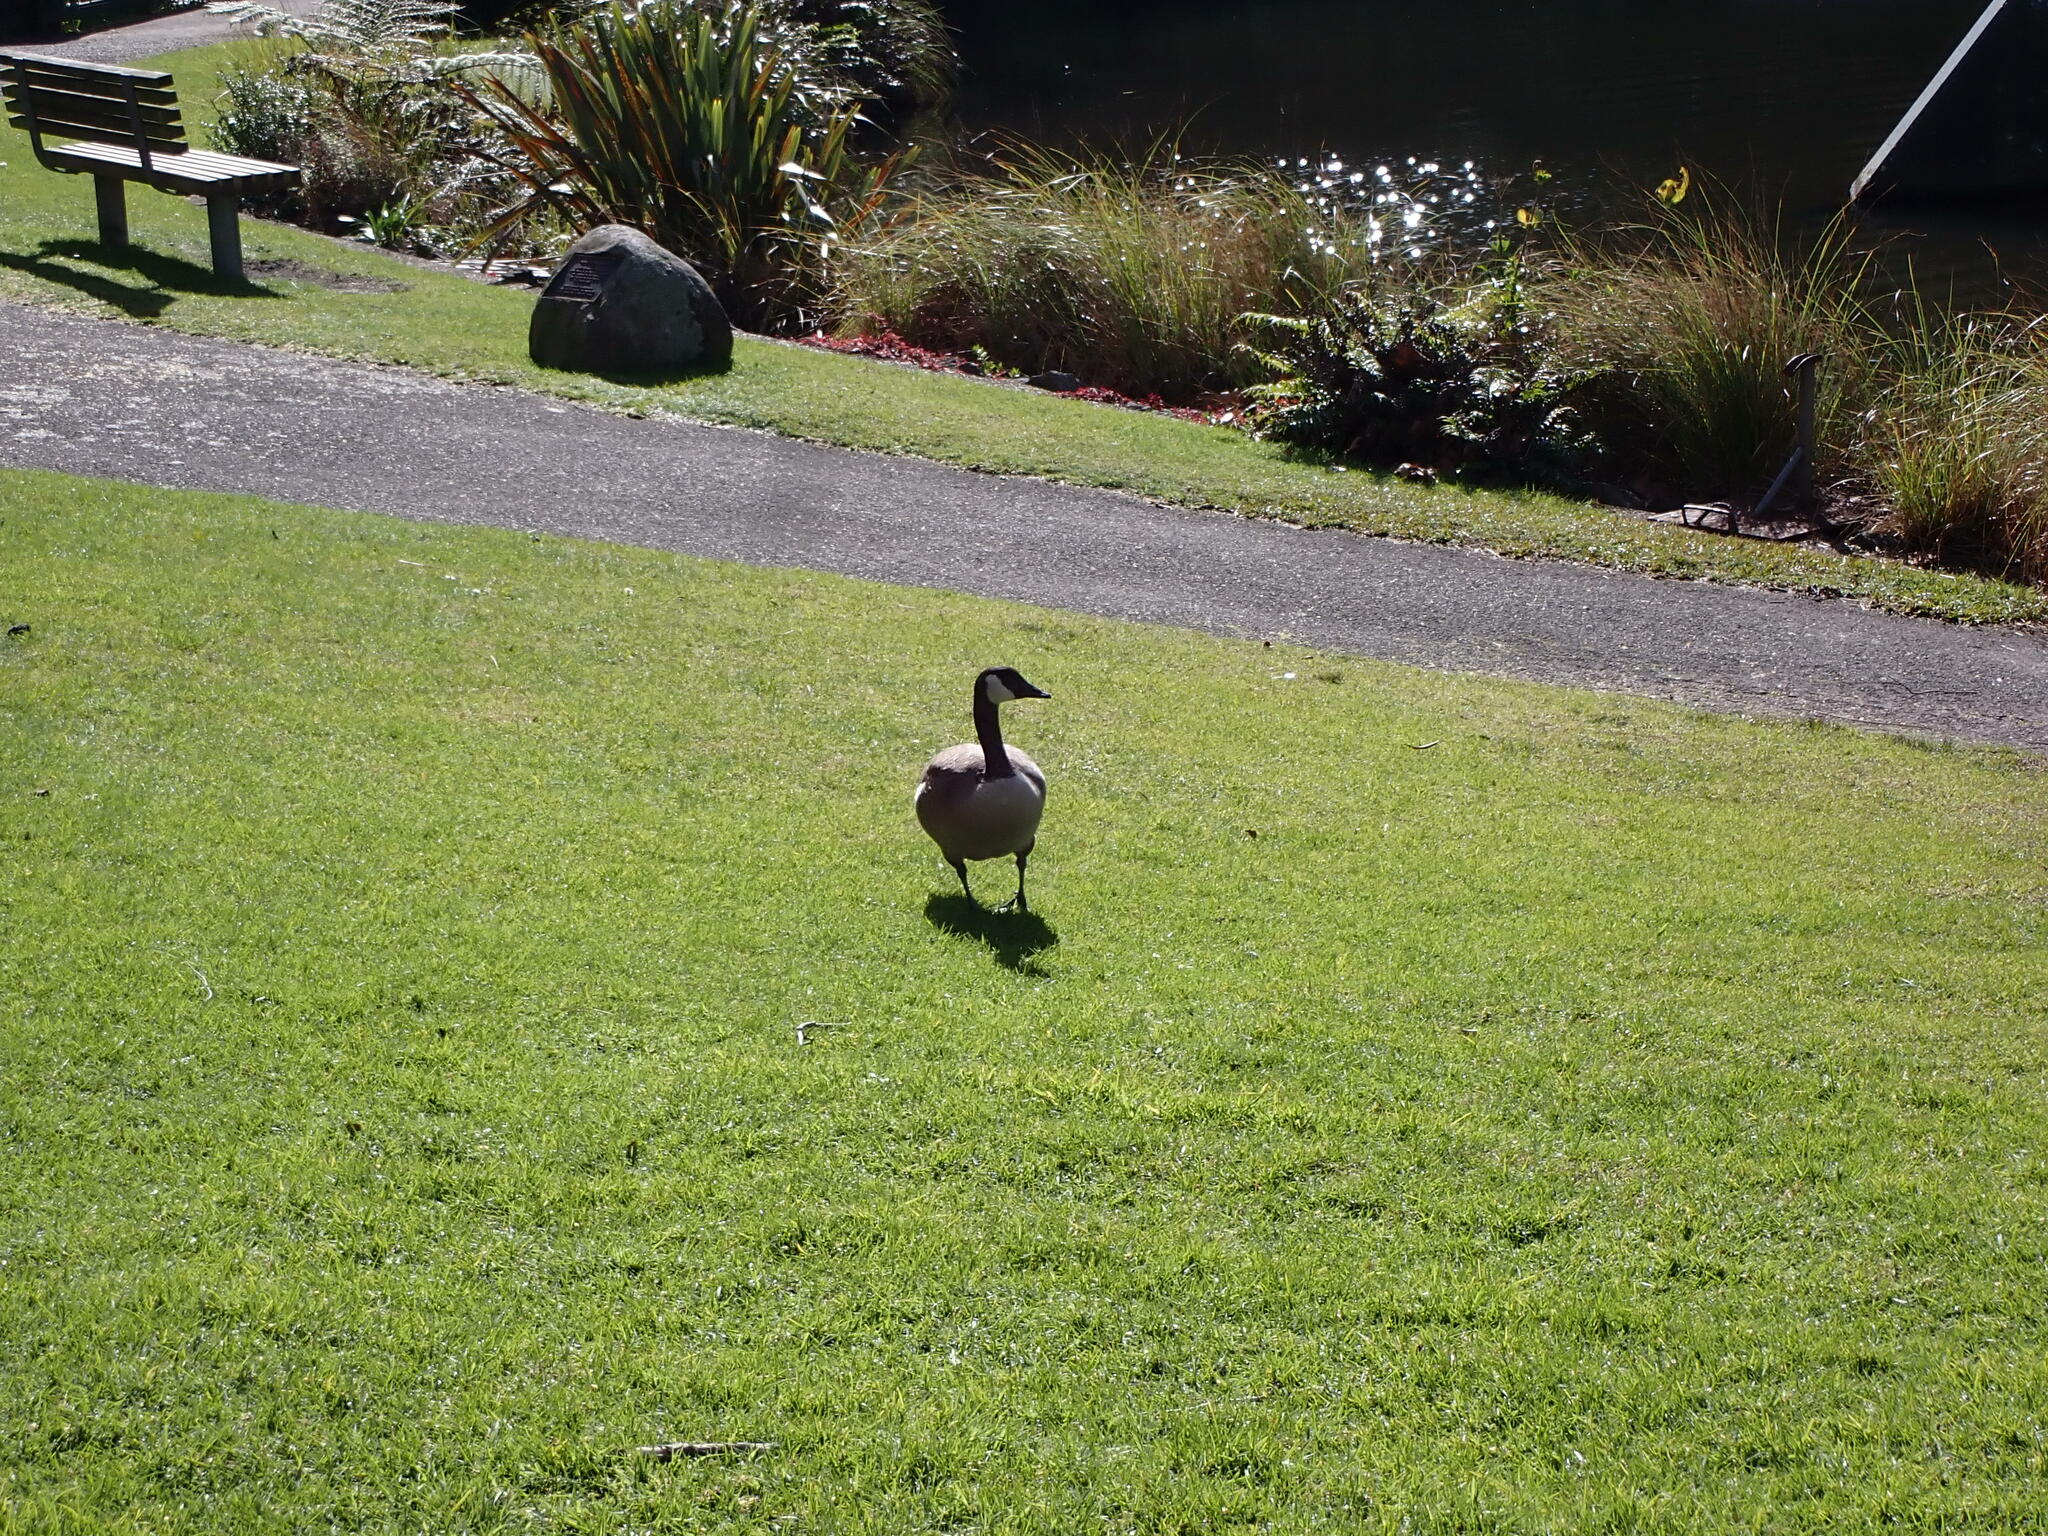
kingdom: Animalia
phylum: Chordata
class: Aves
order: Anseriformes
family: Anatidae
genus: Branta
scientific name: Branta canadensis
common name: Canada goose
